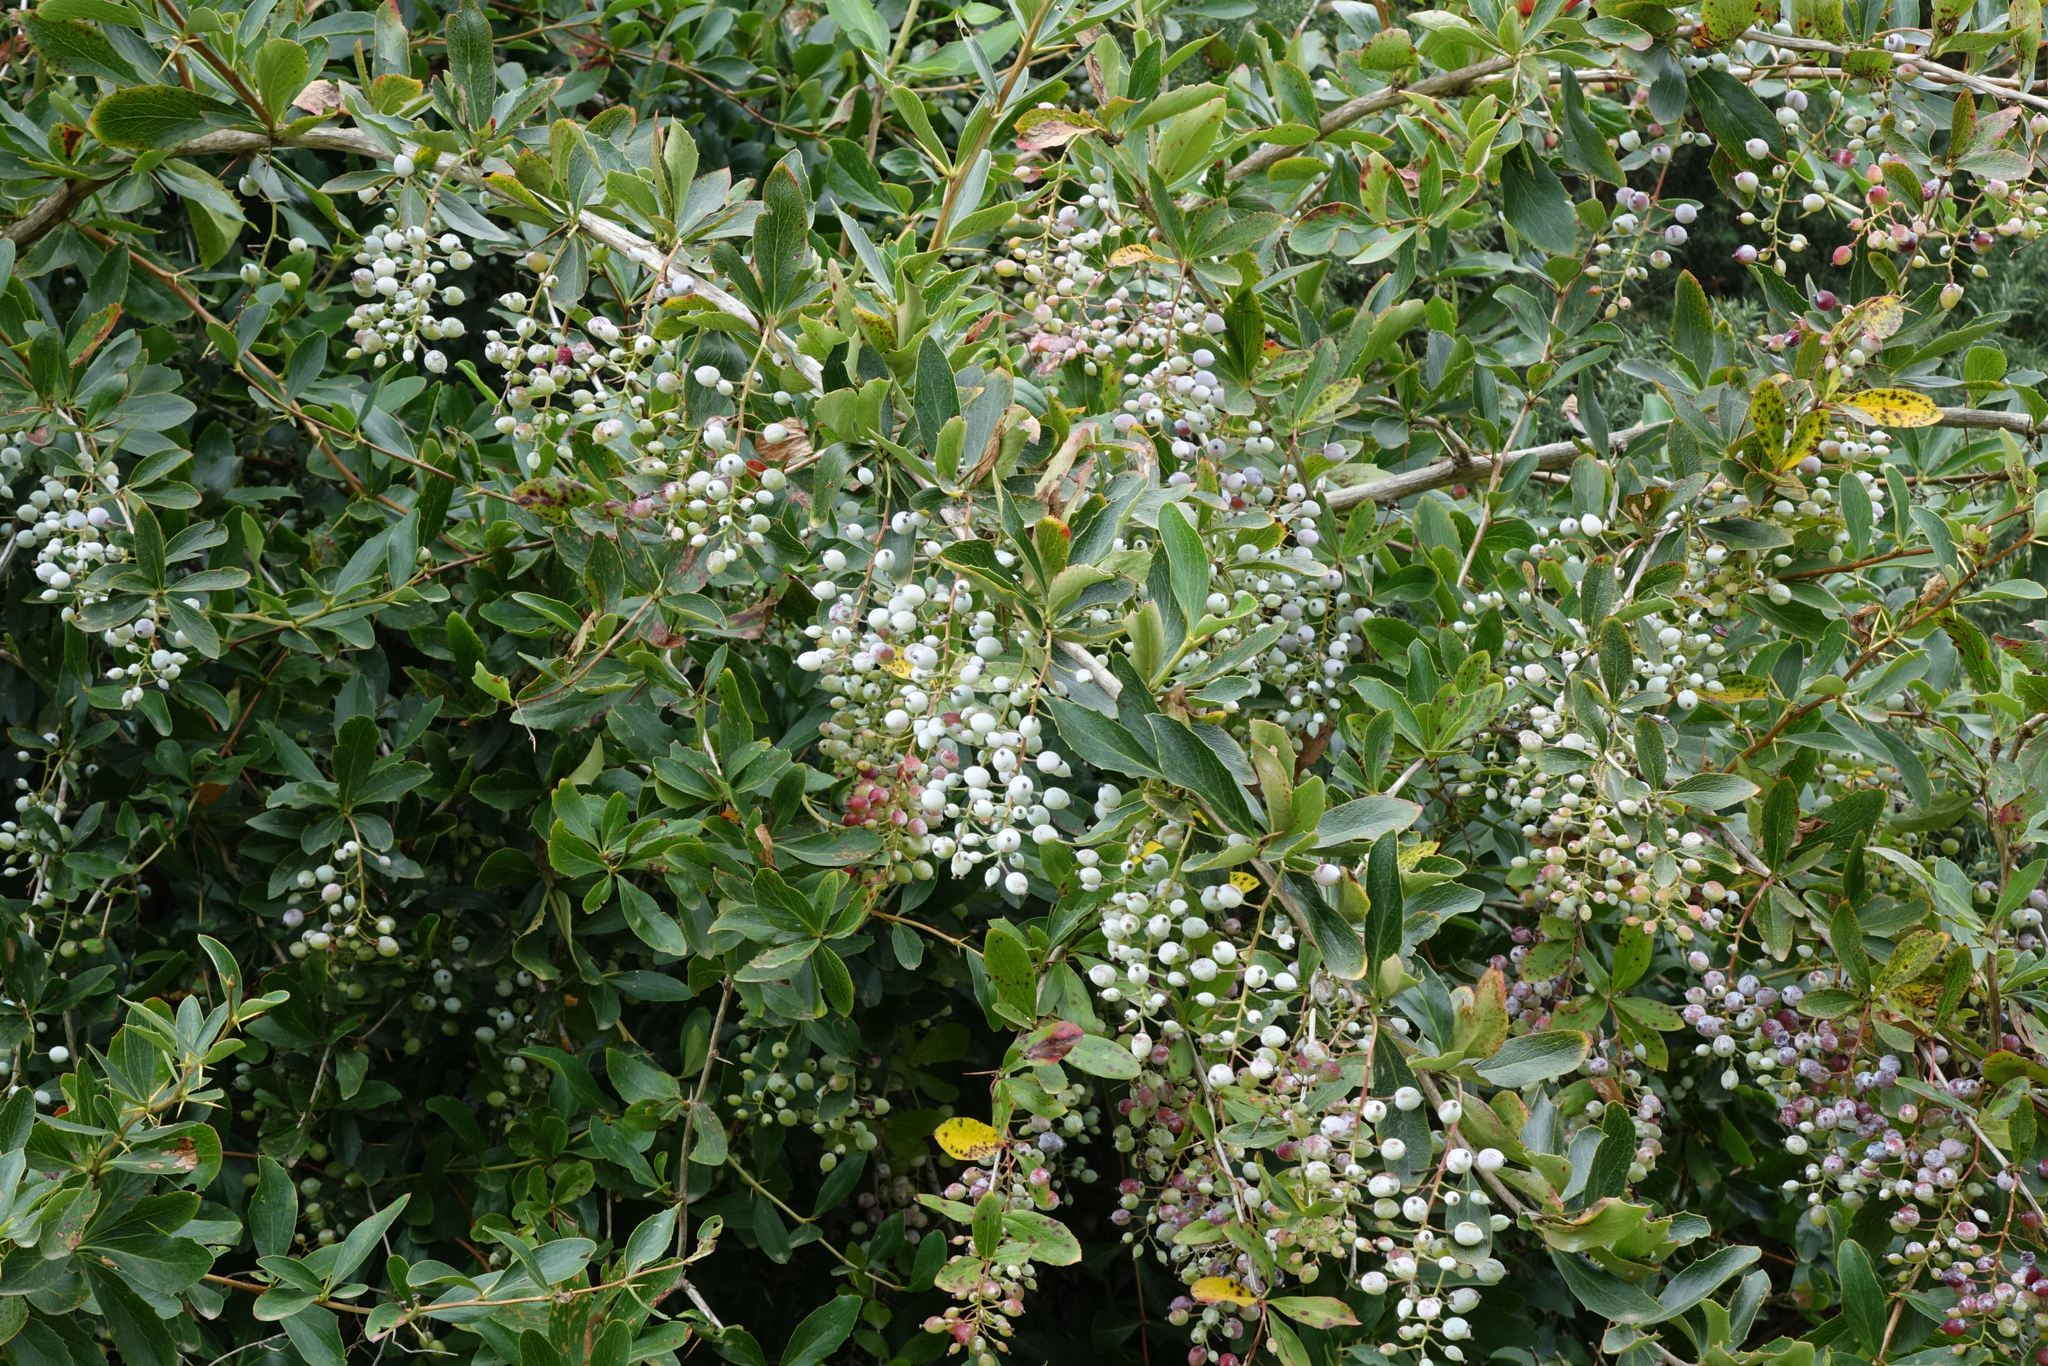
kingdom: Plantae
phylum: Tracheophyta
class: Magnoliopsida
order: Ranunculales
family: Berberidaceae
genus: Berberis
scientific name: Berberis glaucocarpa
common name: Great barberry
